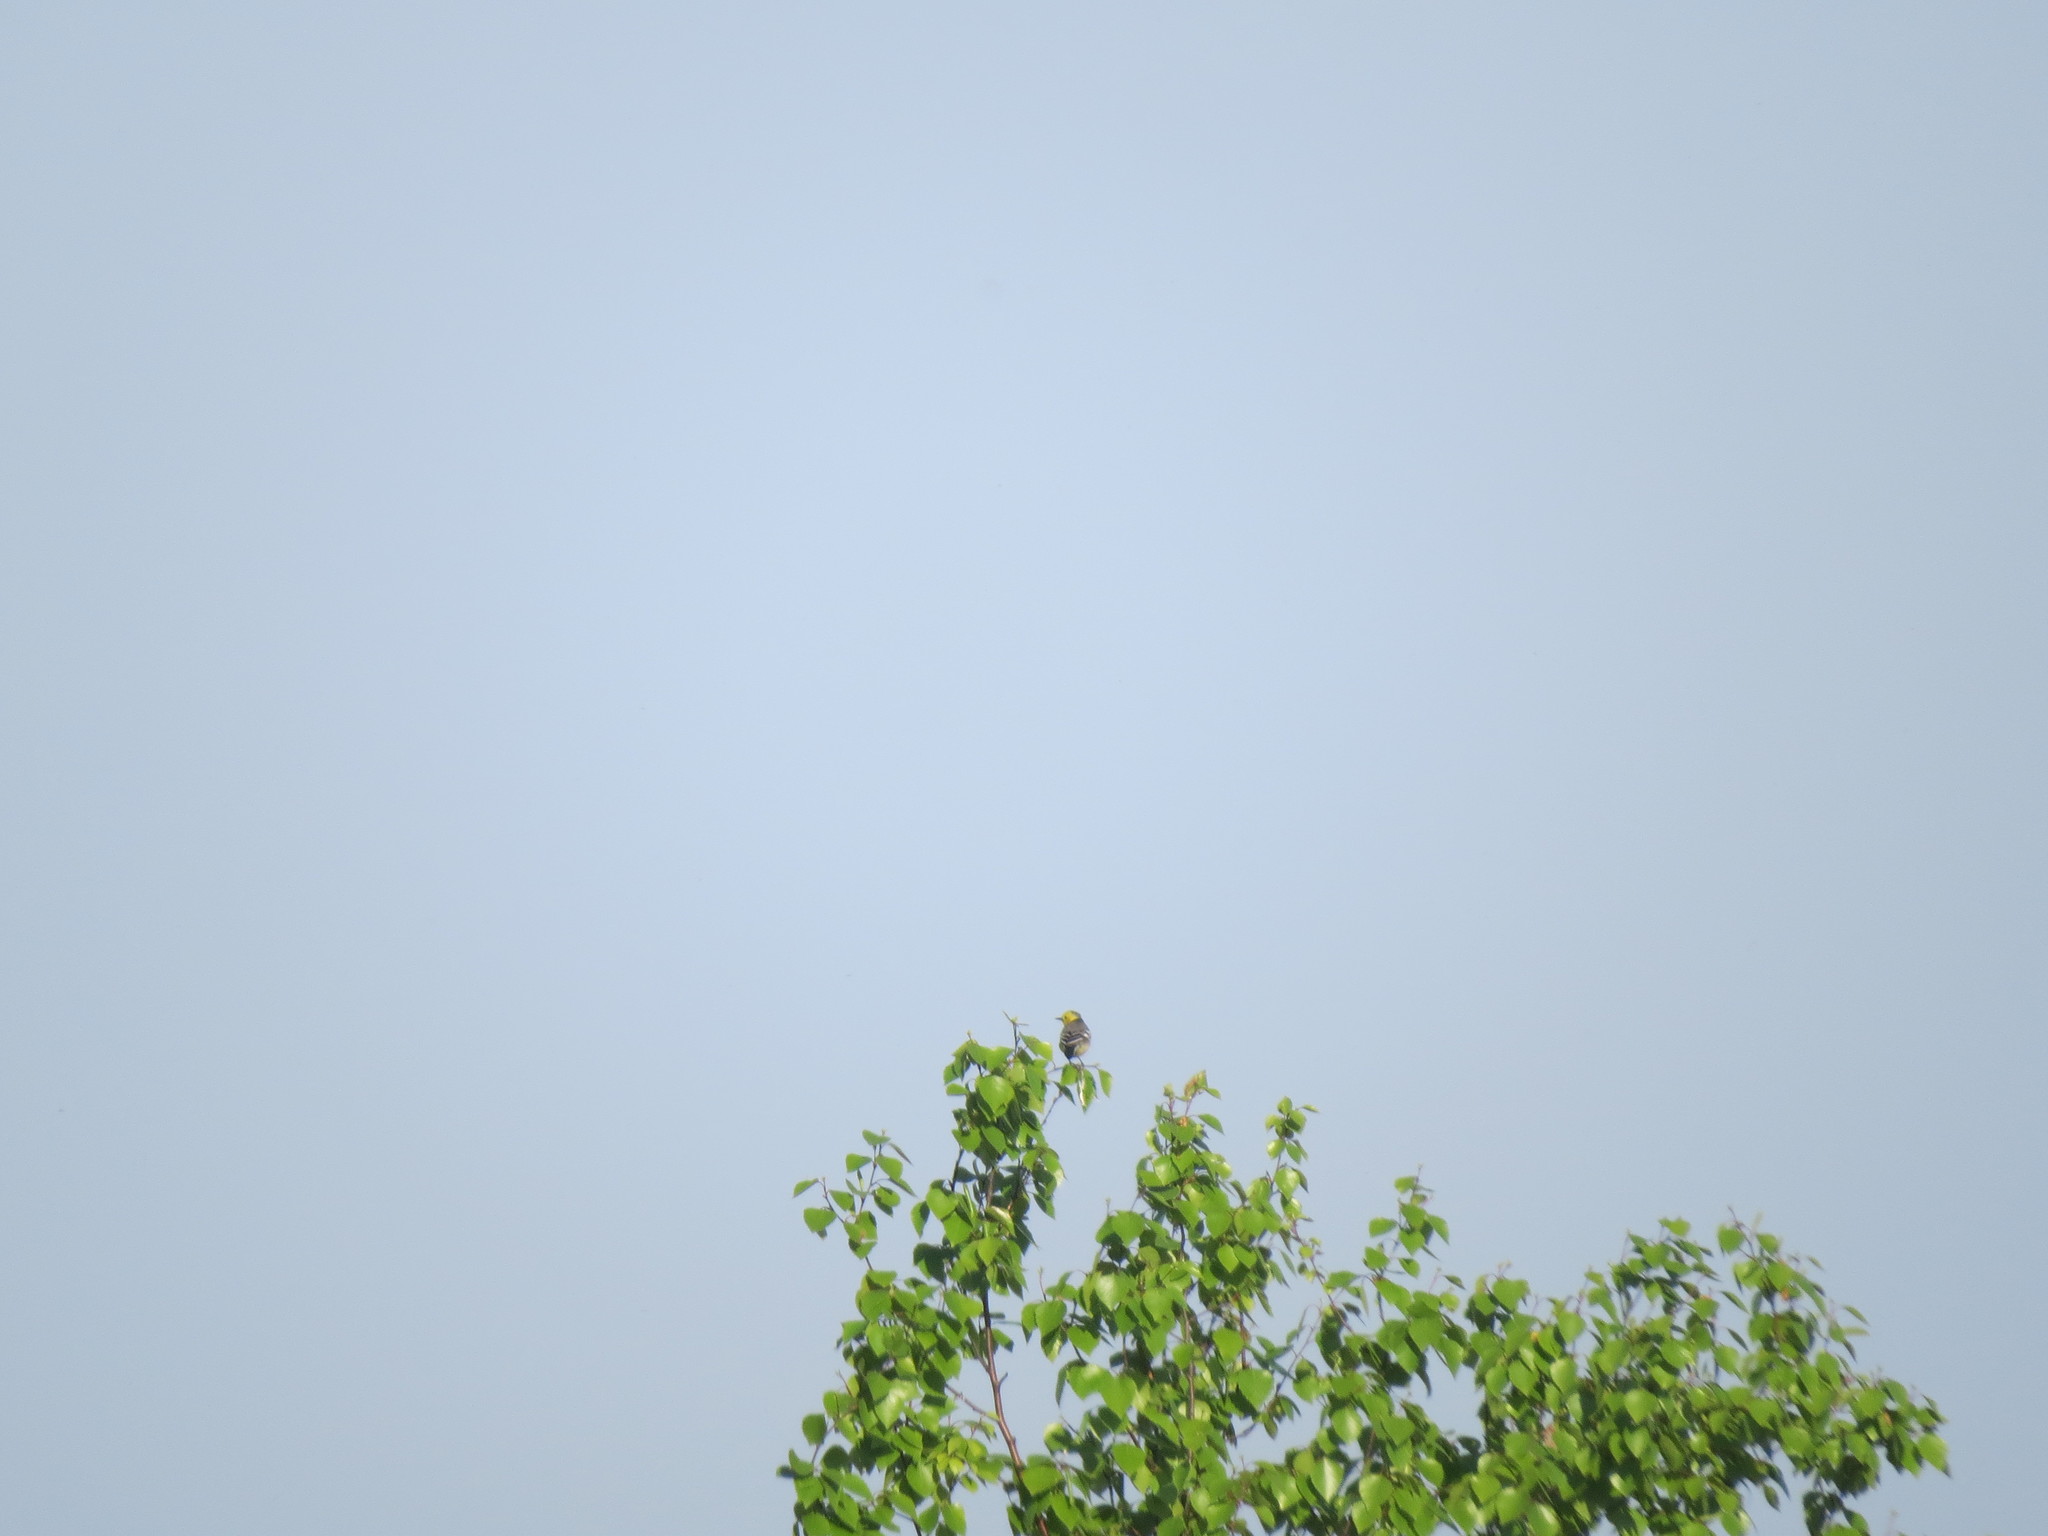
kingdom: Animalia
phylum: Chordata
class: Aves
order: Passeriformes
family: Motacillidae
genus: Motacilla
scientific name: Motacilla citreola
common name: Citrine wagtail
